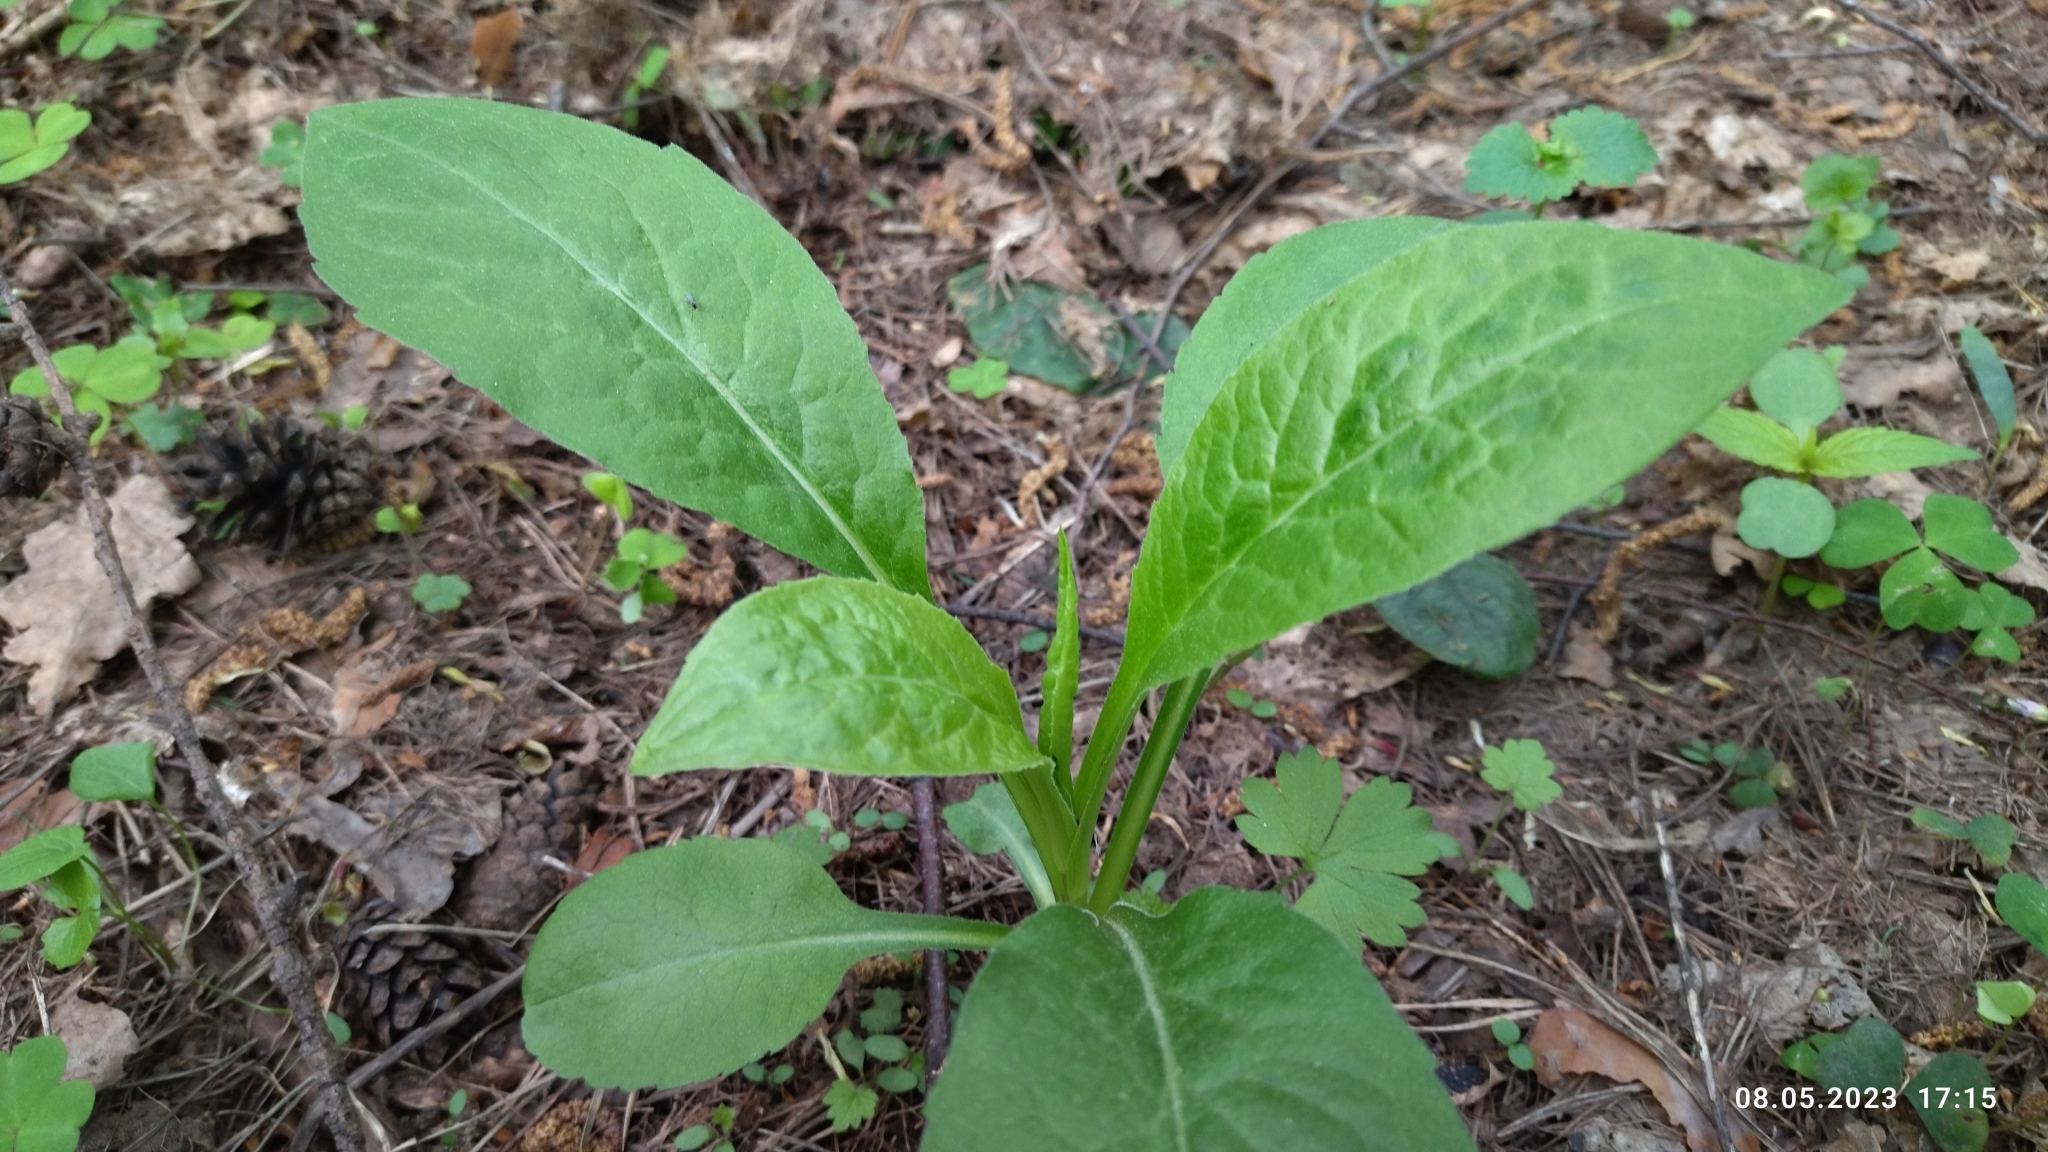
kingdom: Plantae
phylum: Tracheophyta
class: Magnoliopsida
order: Asterales
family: Asteraceae
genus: Solidago
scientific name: Solidago virgaurea
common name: Goldenrod
